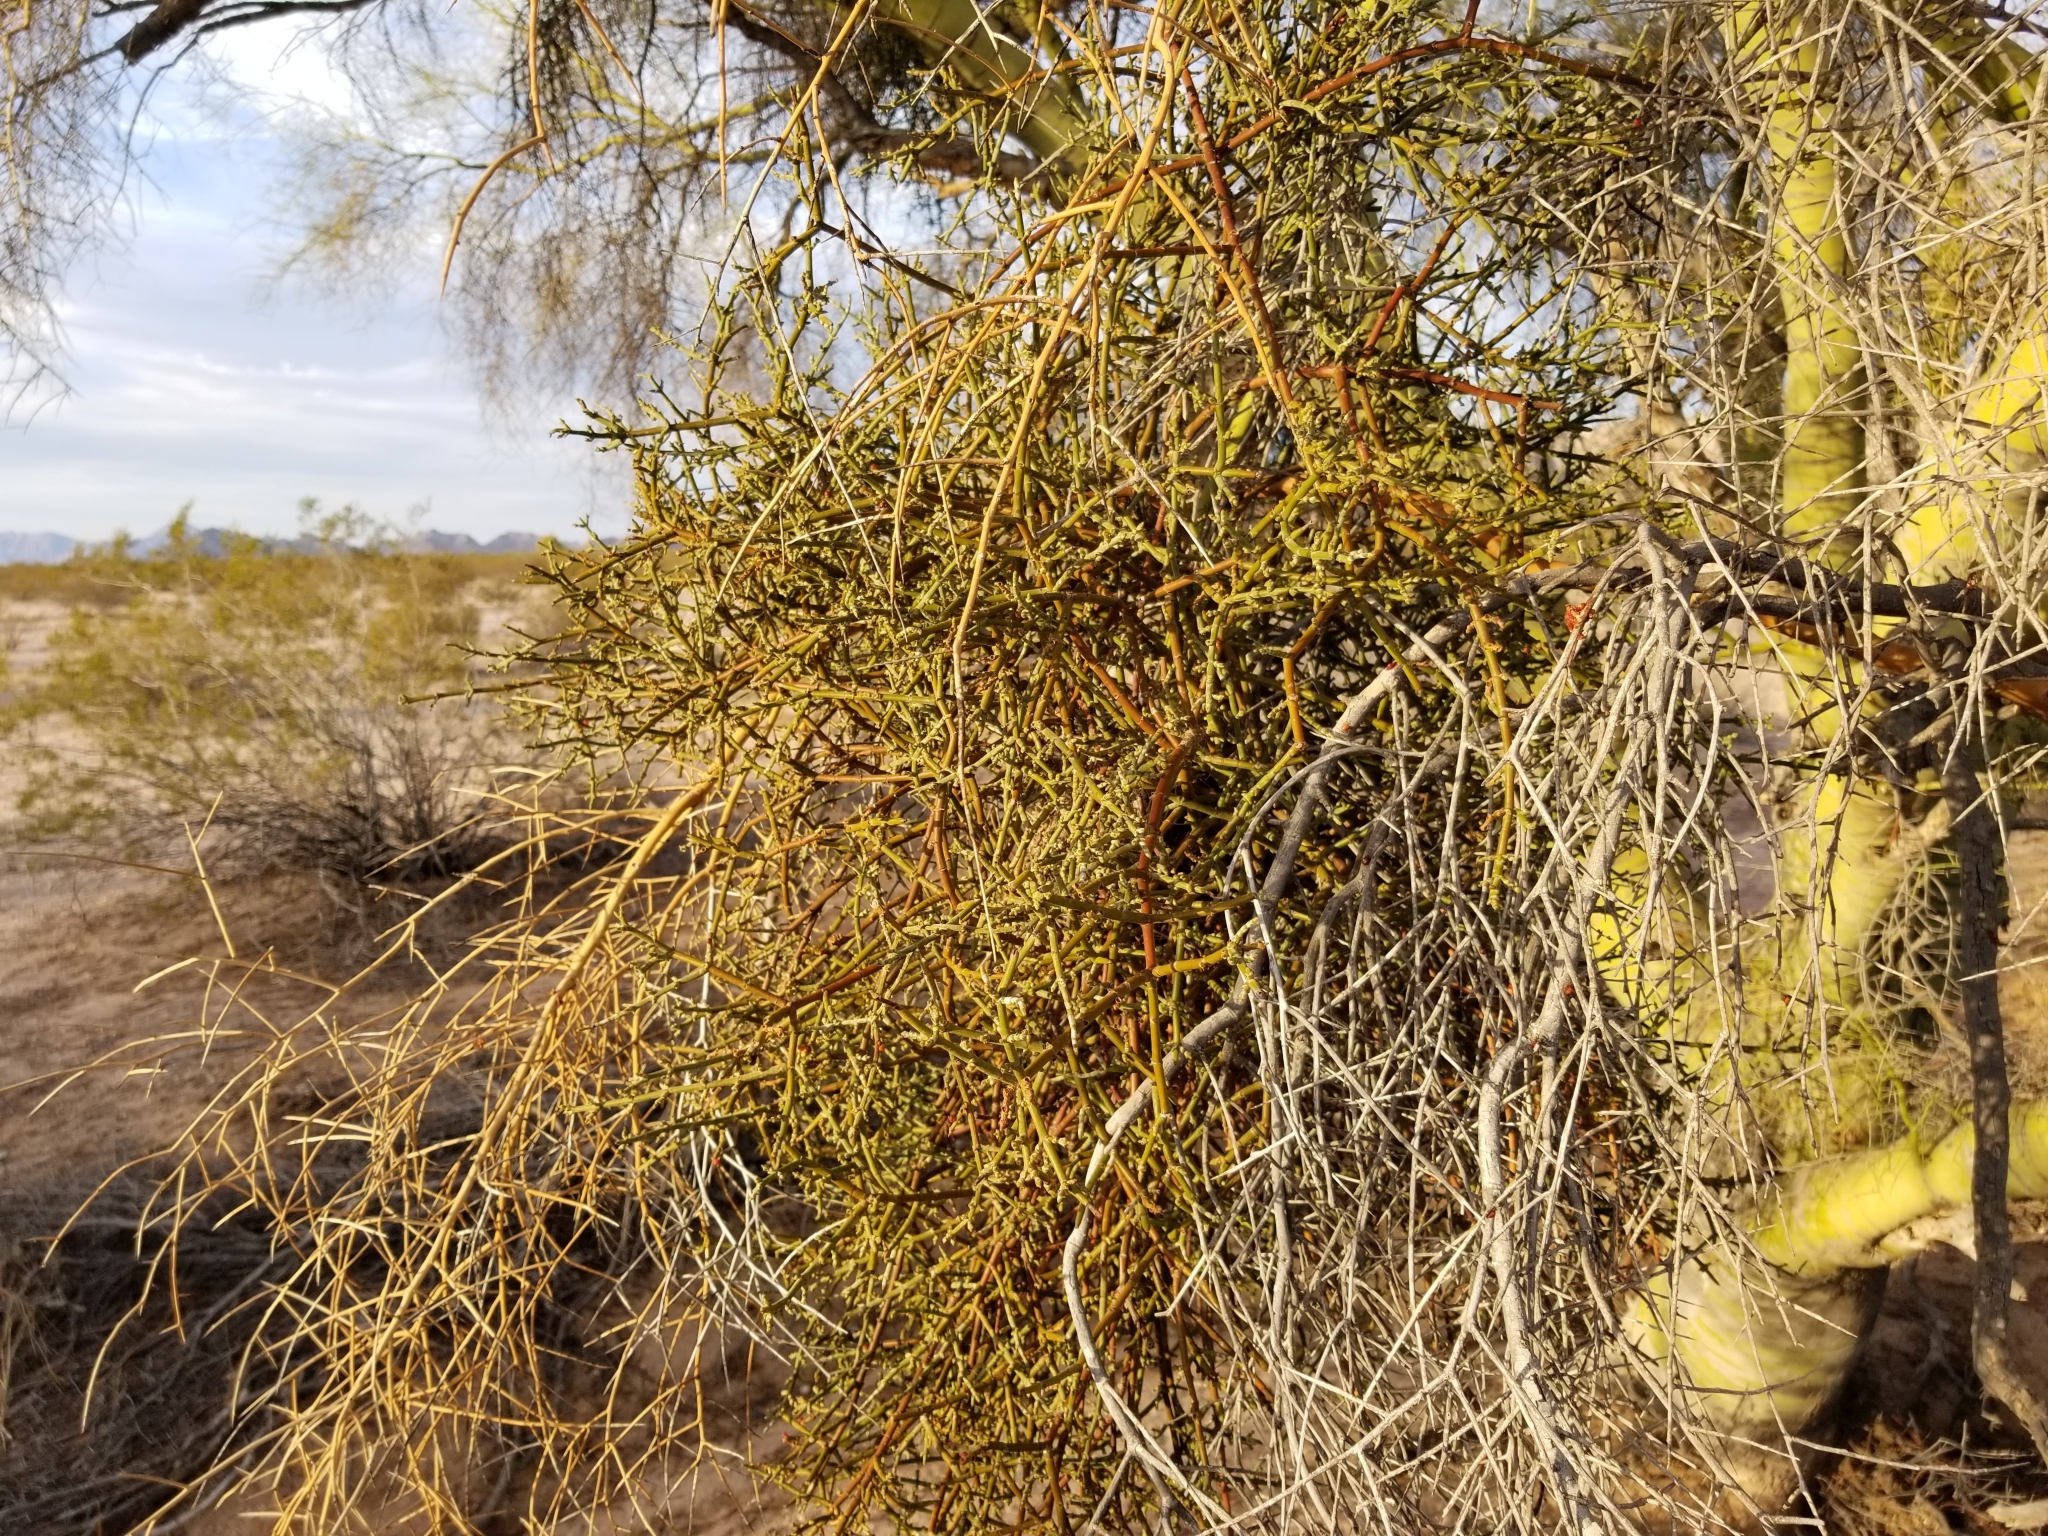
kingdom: Plantae
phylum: Tracheophyta
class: Magnoliopsida
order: Fabales
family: Fabaceae
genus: Parkinsonia
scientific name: Parkinsonia florida
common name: Blue paloverde
